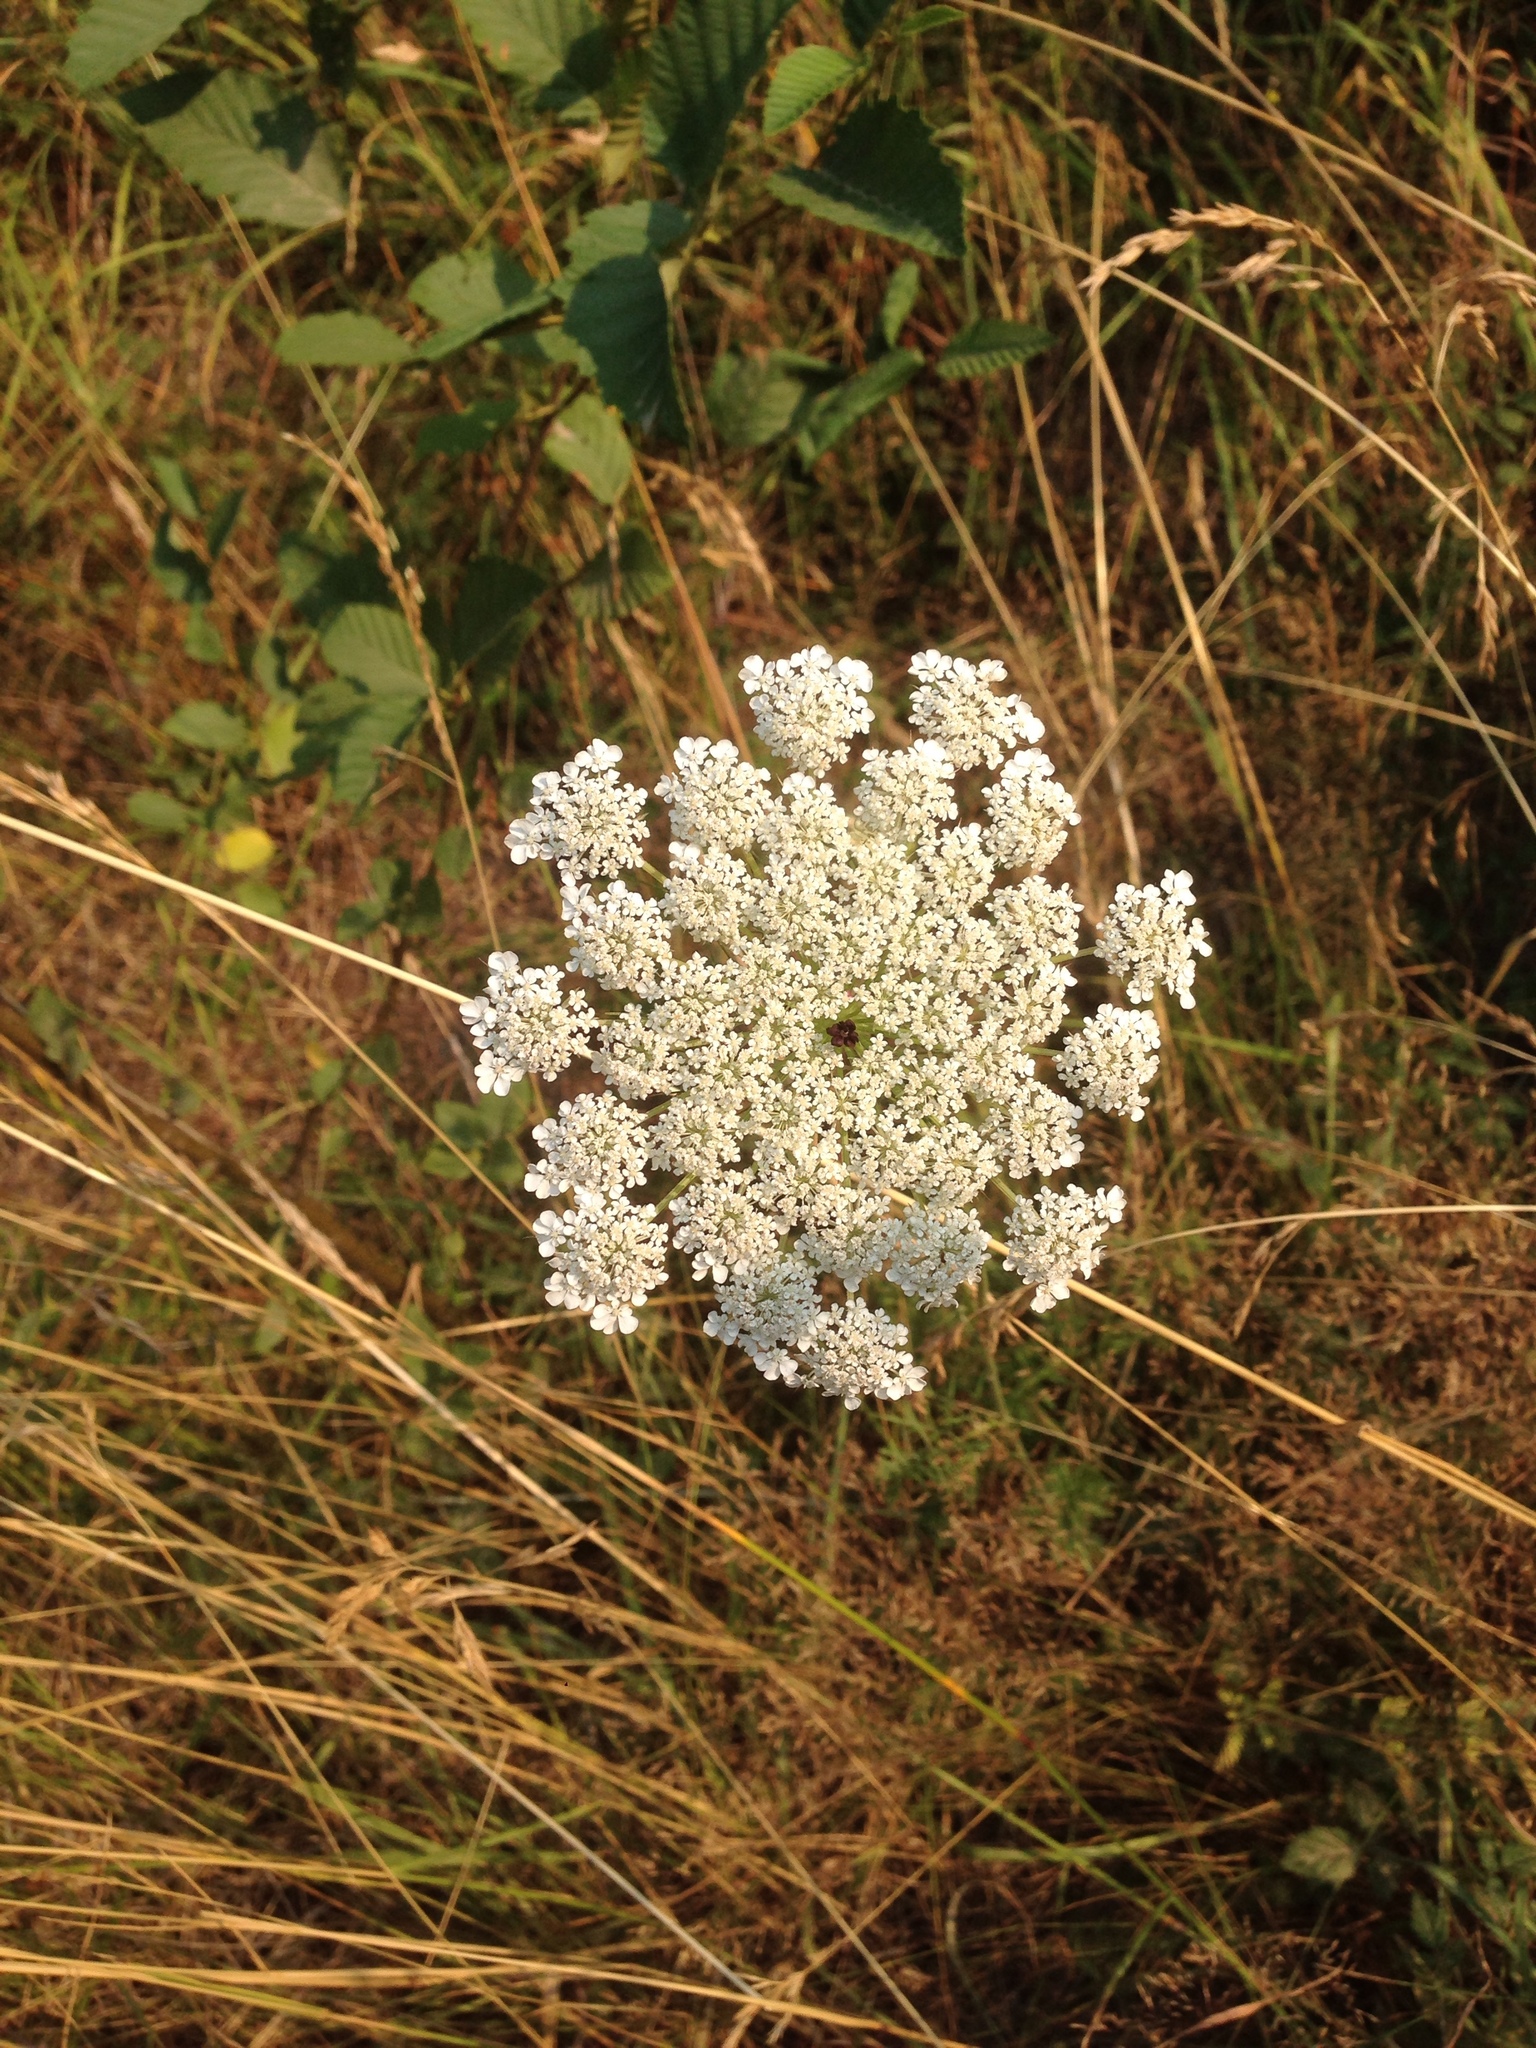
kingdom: Plantae
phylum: Tracheophyta
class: Magnoliopsida
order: Apiales
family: Apiaceae
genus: Daucus
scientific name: Daucus carota
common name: Wild carrot
